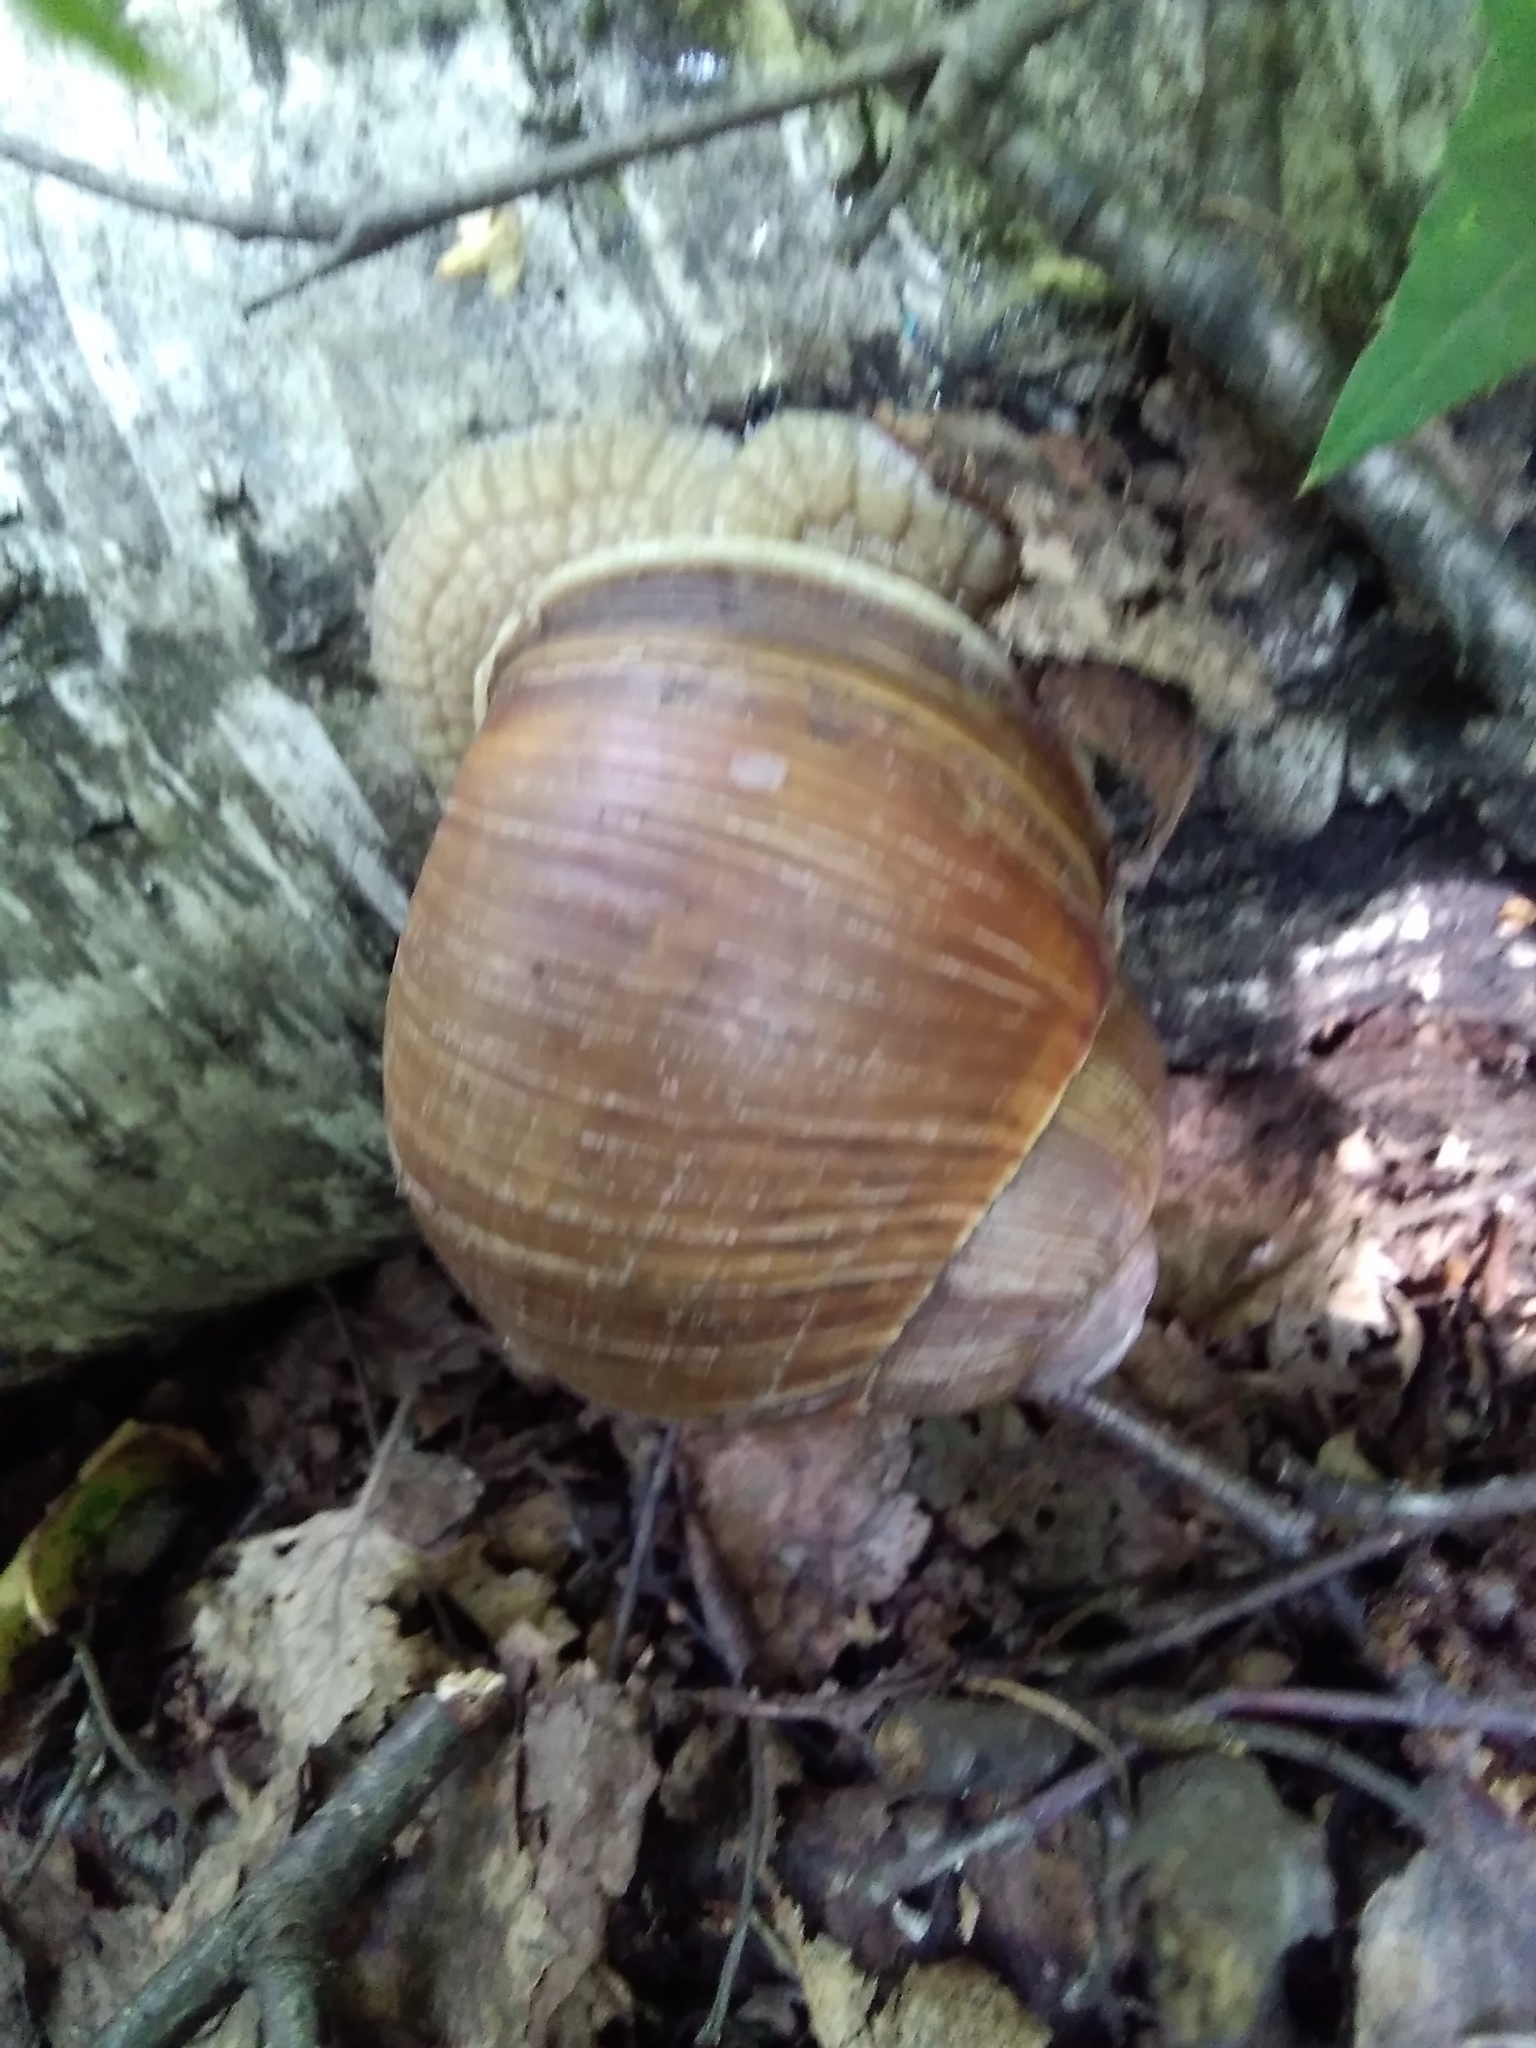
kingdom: Animalia
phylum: Mollusca
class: Gastropoda
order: Stylommatophora
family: Helicidae
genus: Helix
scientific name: Helix pomatia
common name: Roman snail
